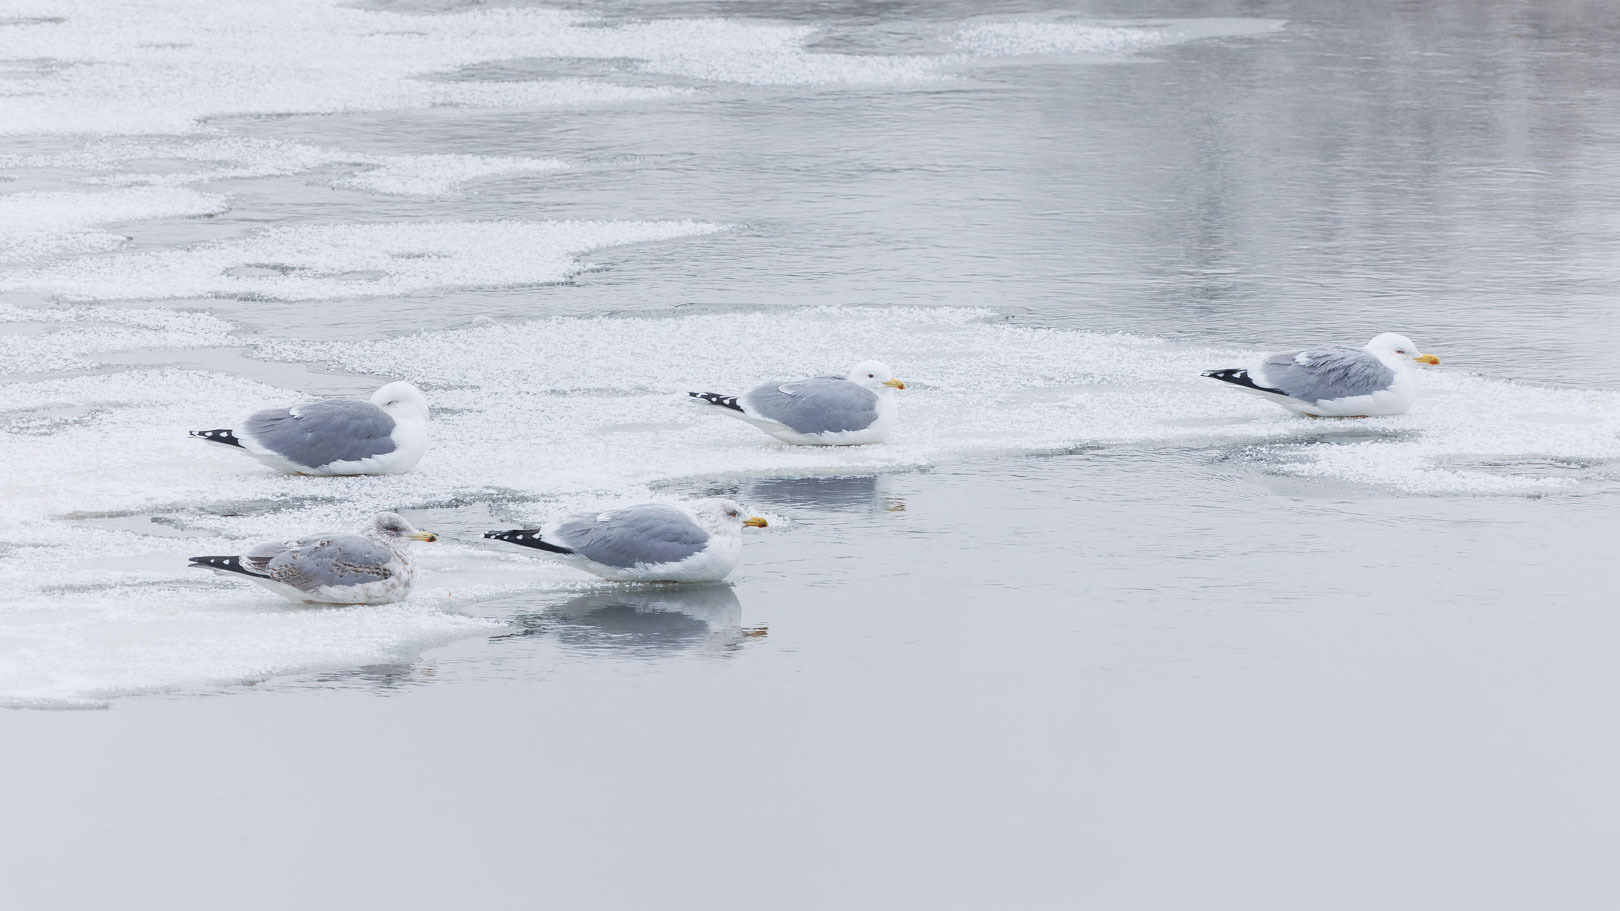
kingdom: Animalia
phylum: Chordata
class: Aves
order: Charadriiformes
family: Laridae
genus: Larus
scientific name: Larus argentatus
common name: Herring gull
